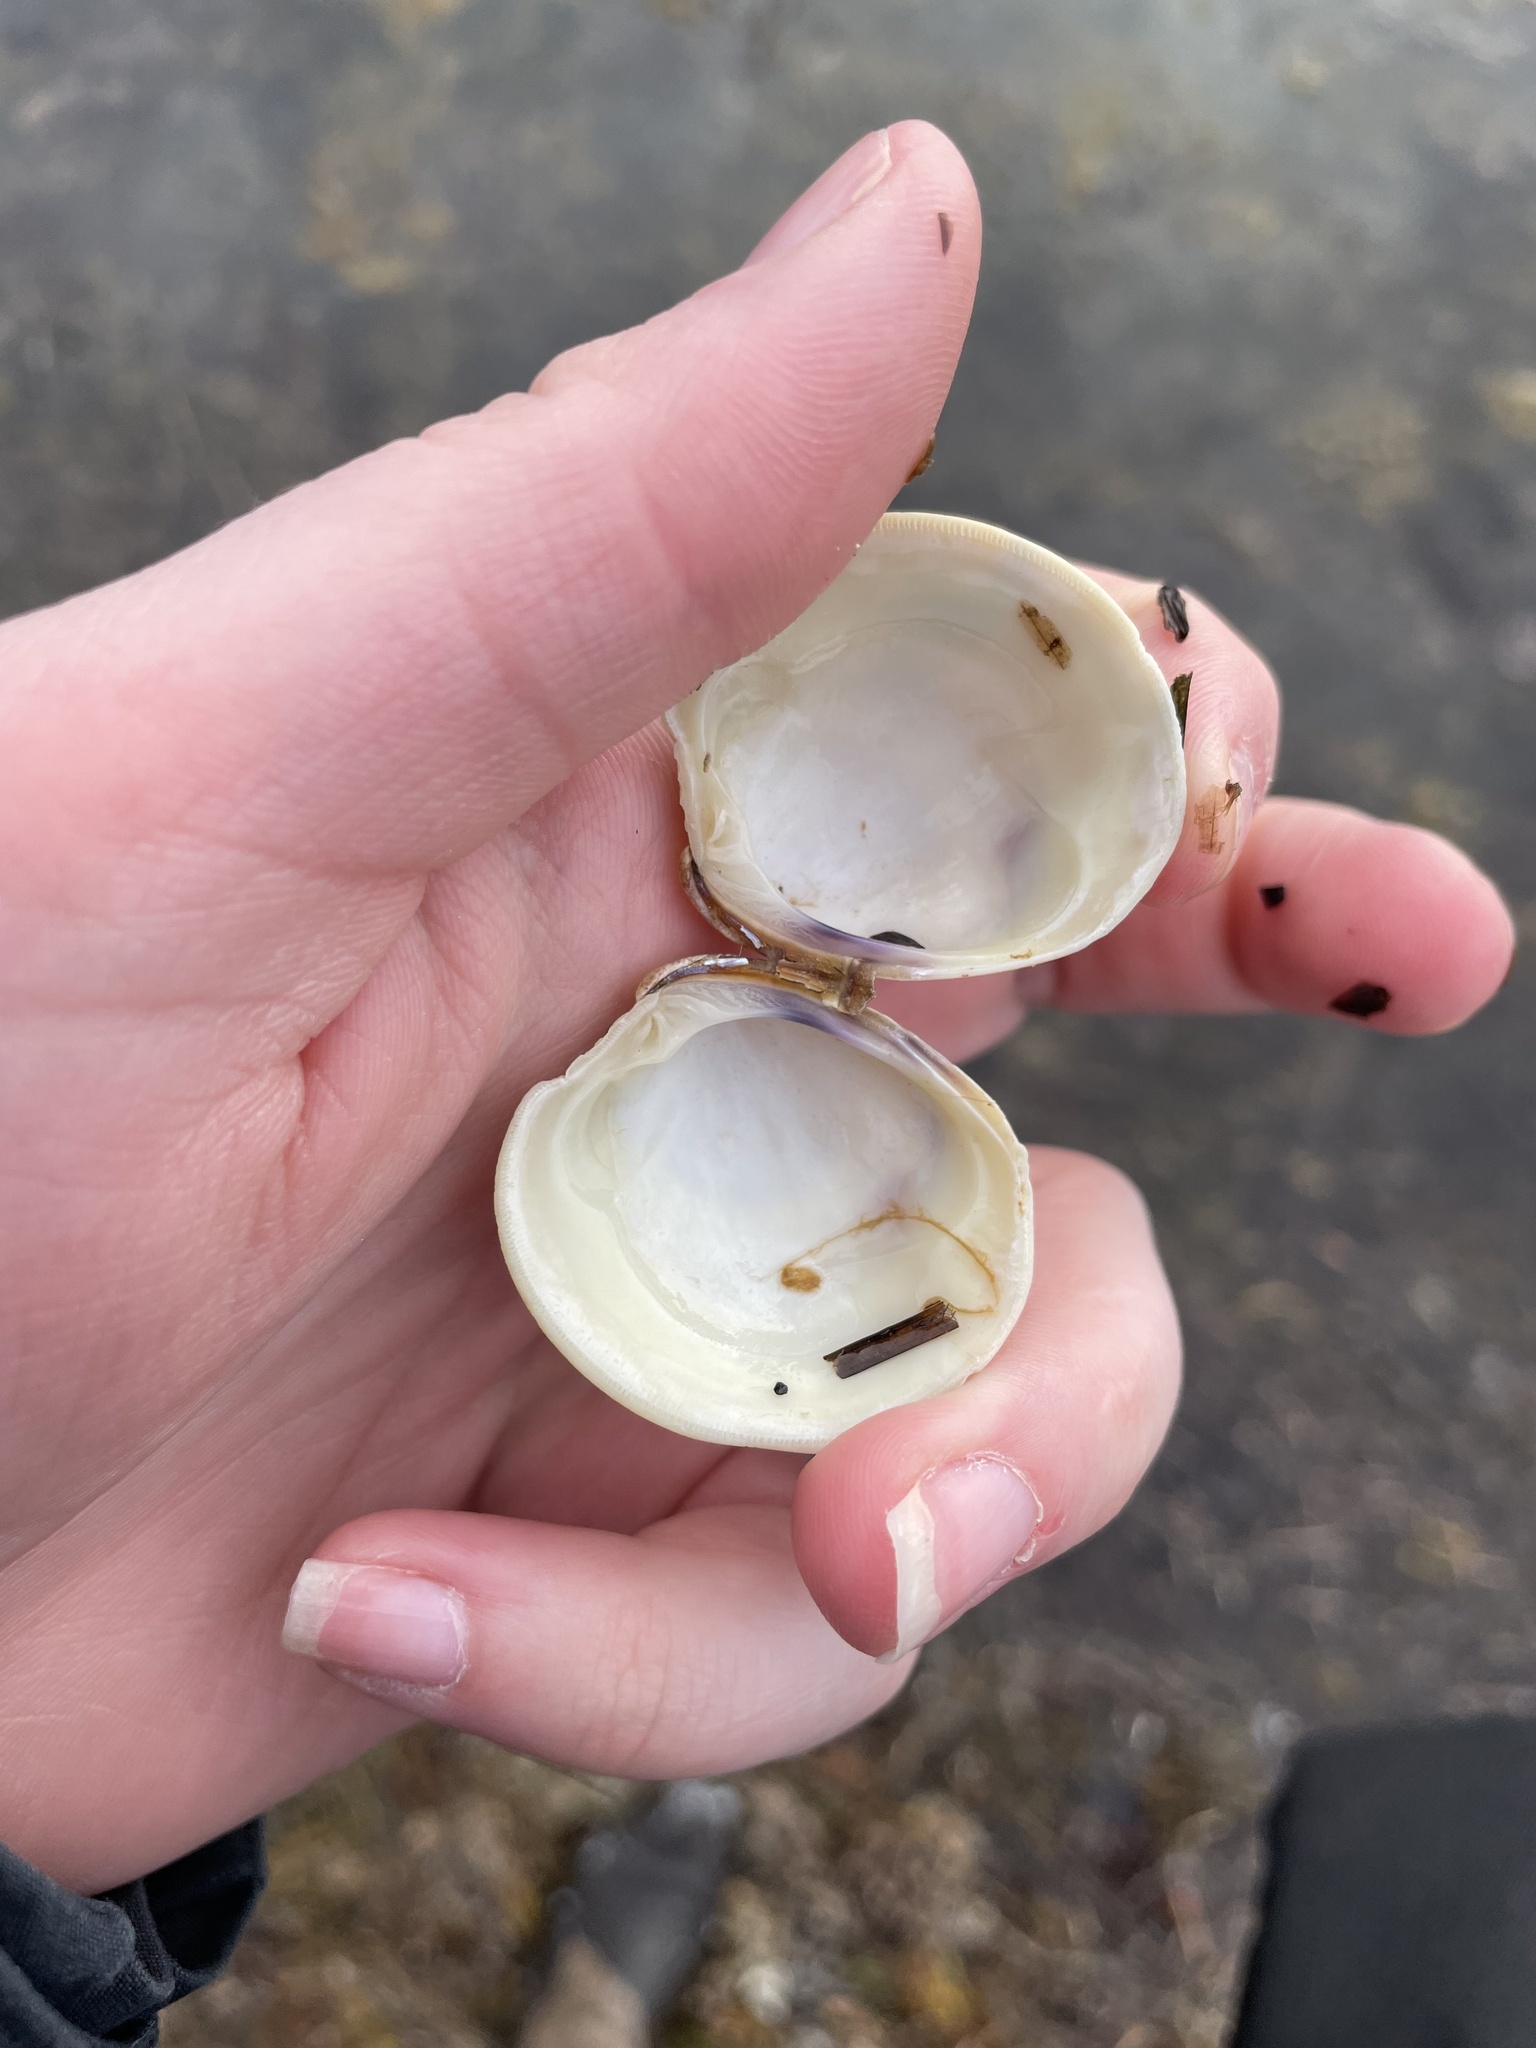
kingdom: Animalia
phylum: Mollusca
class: Bivalvia
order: Venerida
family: Veneridae
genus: Mercenaria
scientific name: Mercenaria mercenaria
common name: American hard-shelled clam
